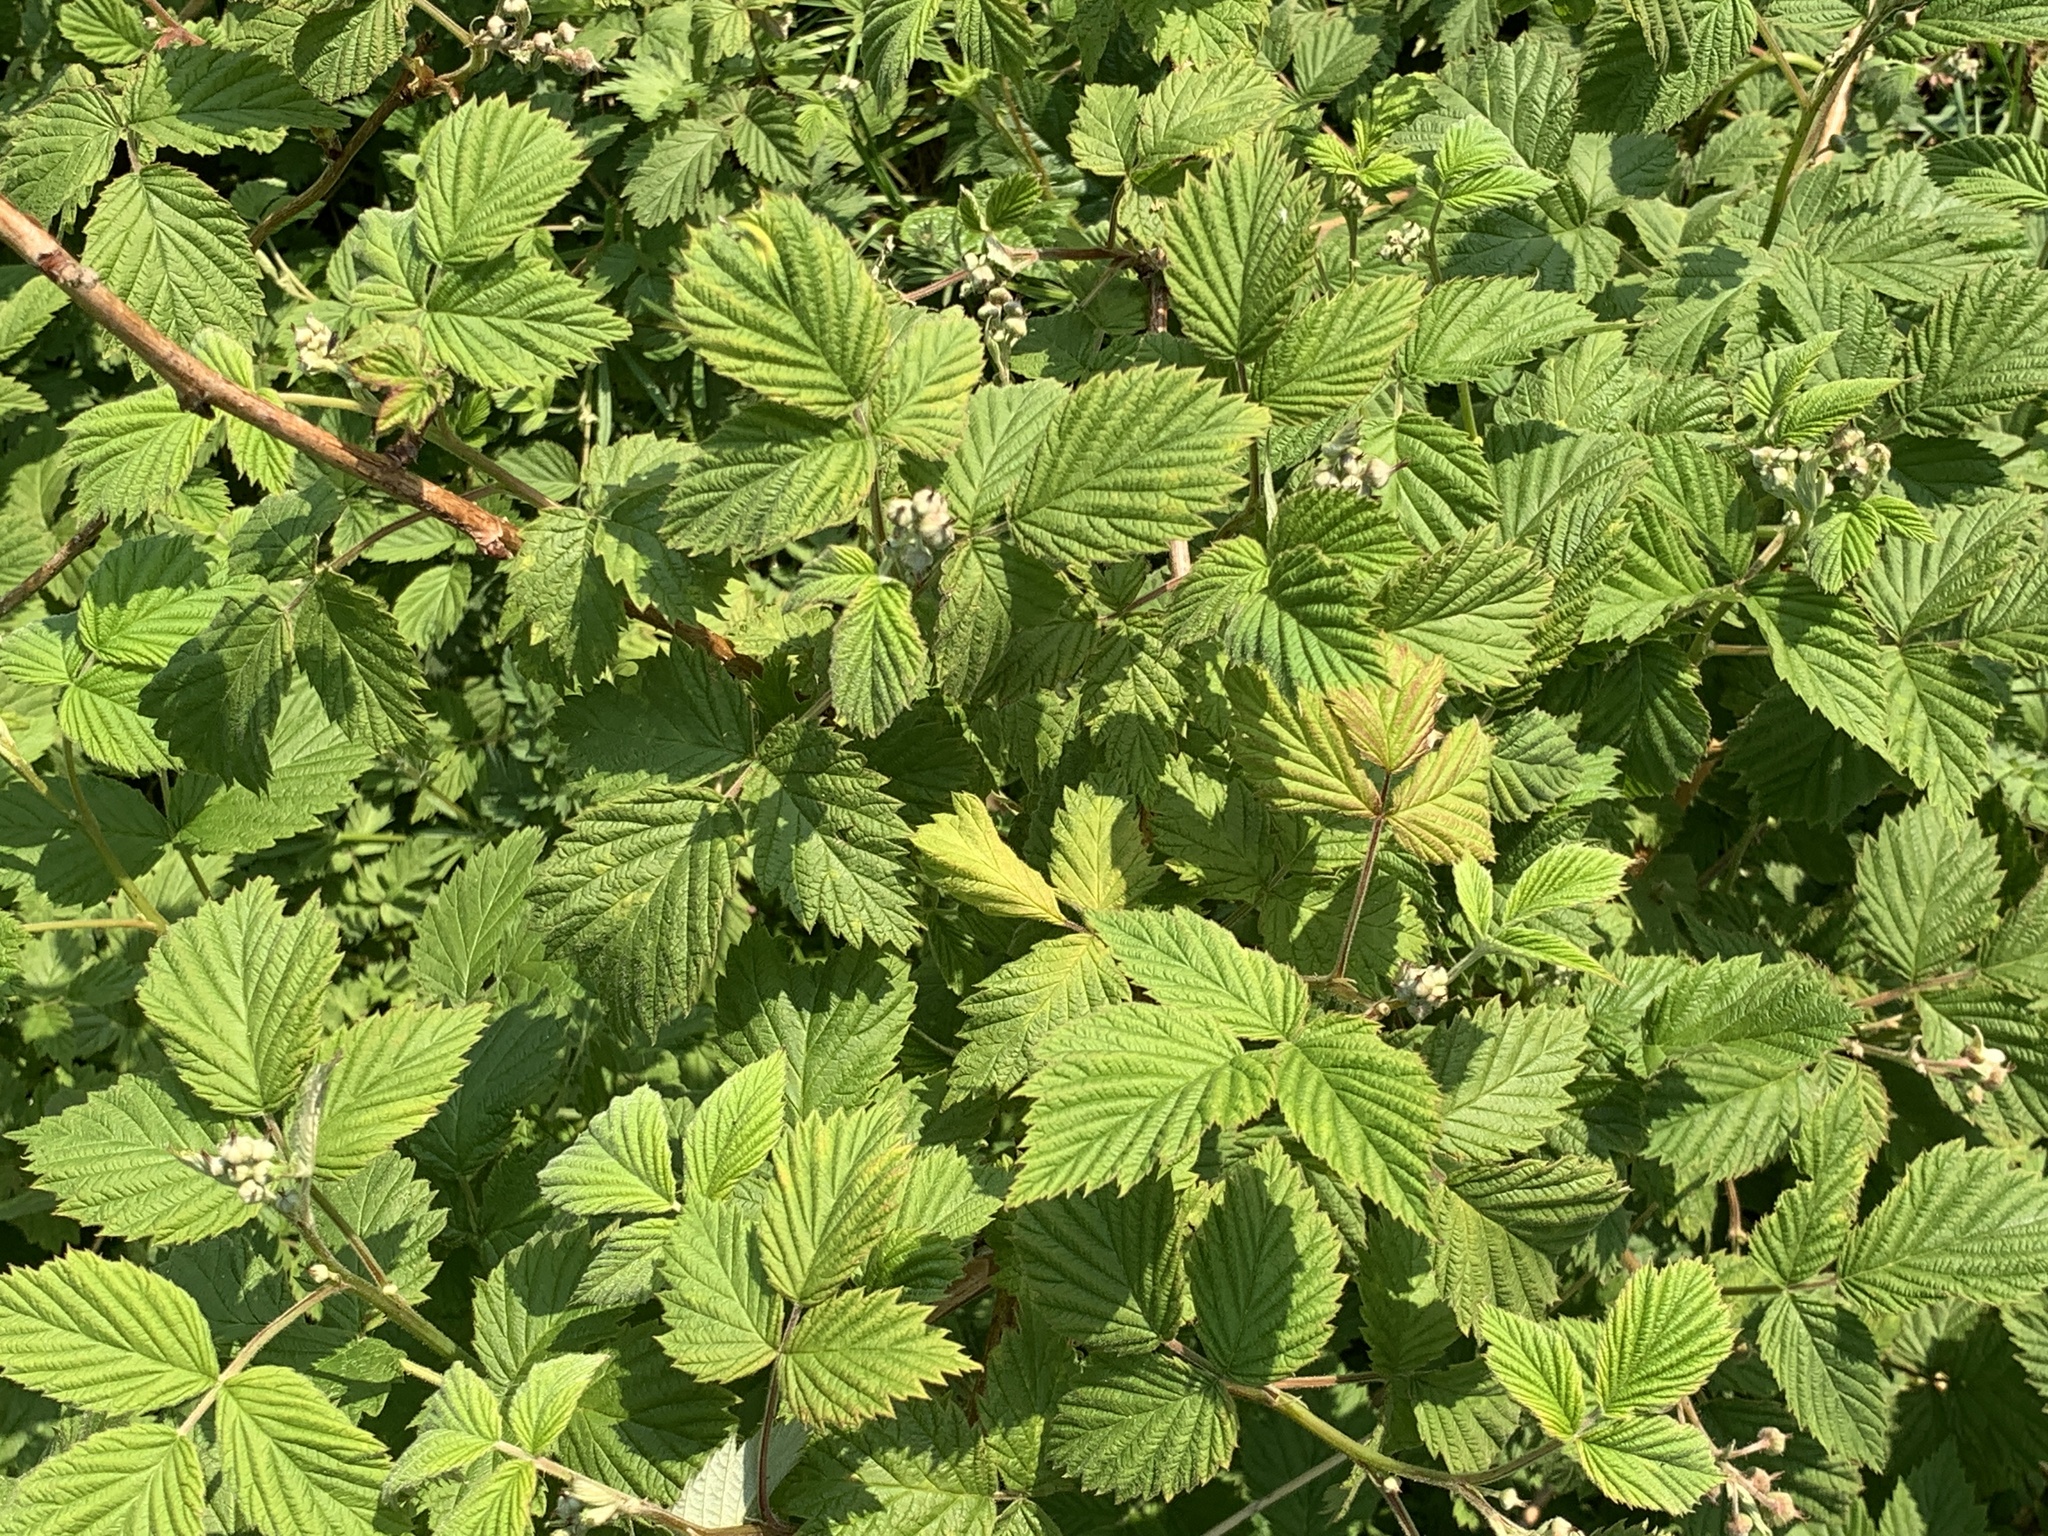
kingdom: Plantae
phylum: Tracheophyta
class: Magnoliopsida
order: Rosales
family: Rosaceae
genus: Rubus
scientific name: Rubus idaeus
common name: Raspberry
